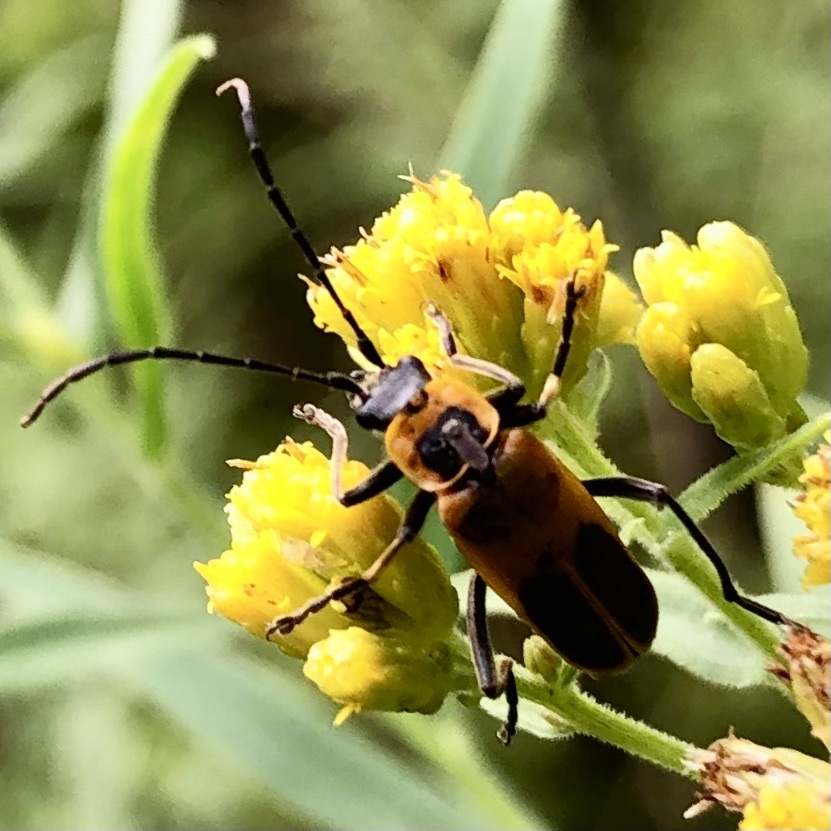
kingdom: Animalia
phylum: Arthropoda
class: Insecta
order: Coleoptera
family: Cantharidae
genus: Chauliognathus
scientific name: Chauliognathus pensylvanicus
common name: Goldenrod soldier beetle
